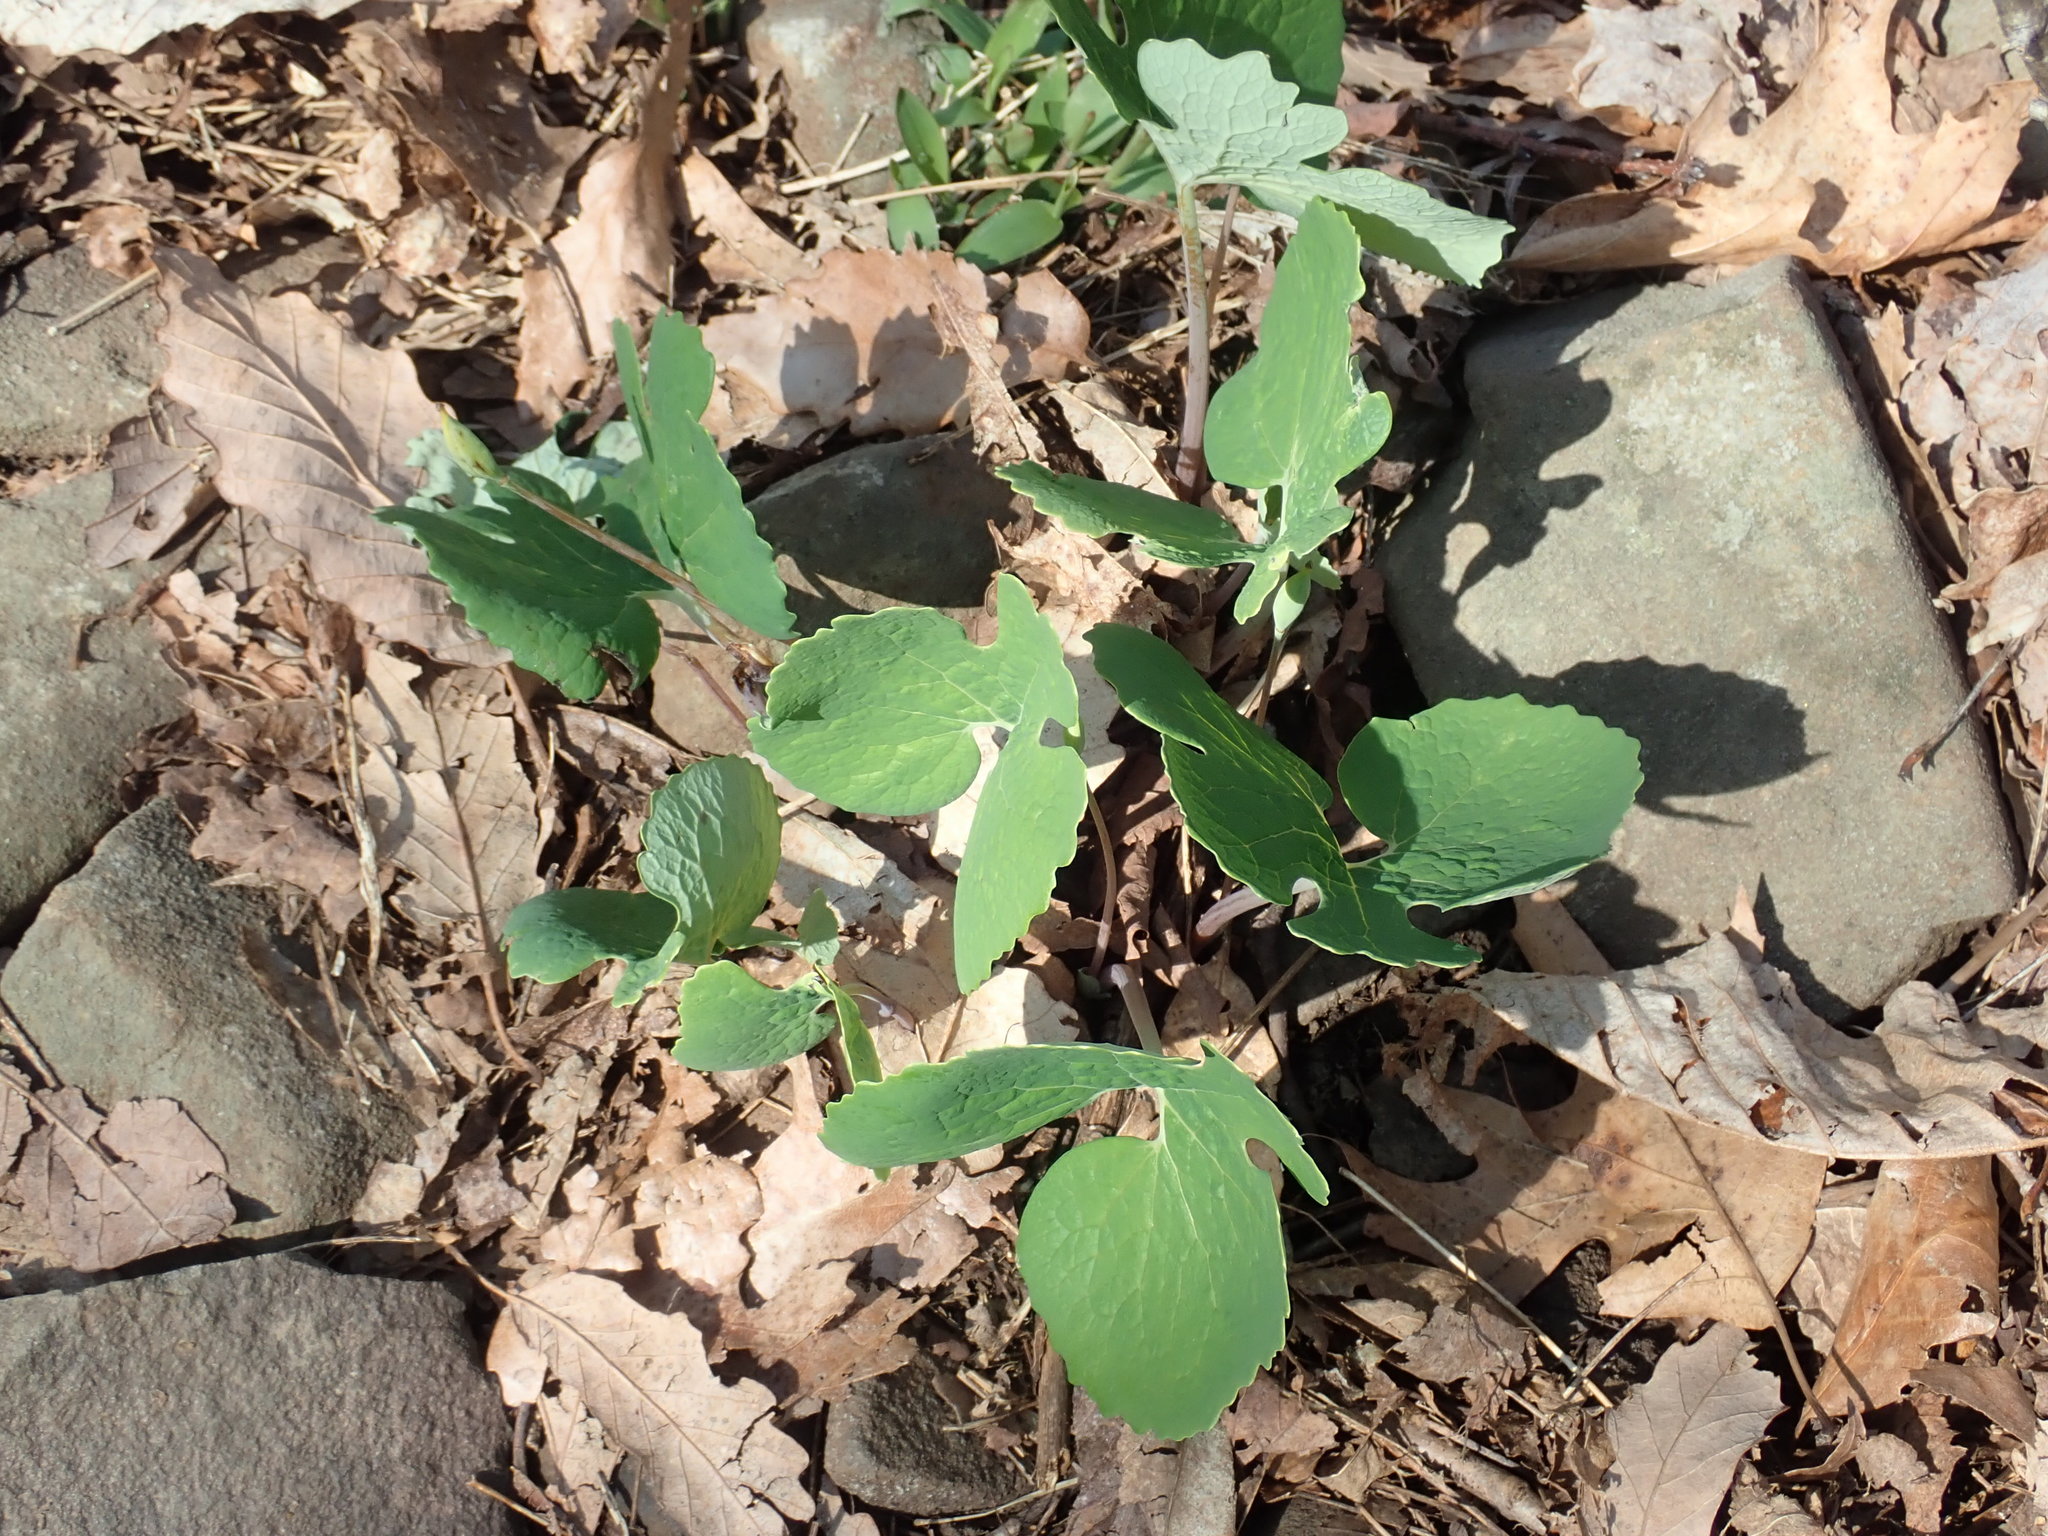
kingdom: Plantae
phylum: Tracheophyta
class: Magnoliopsida
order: Ranunculales
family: Papaveraceae
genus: Sanguinaria
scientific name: Sanguinaria canadensis
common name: Bloodroot
